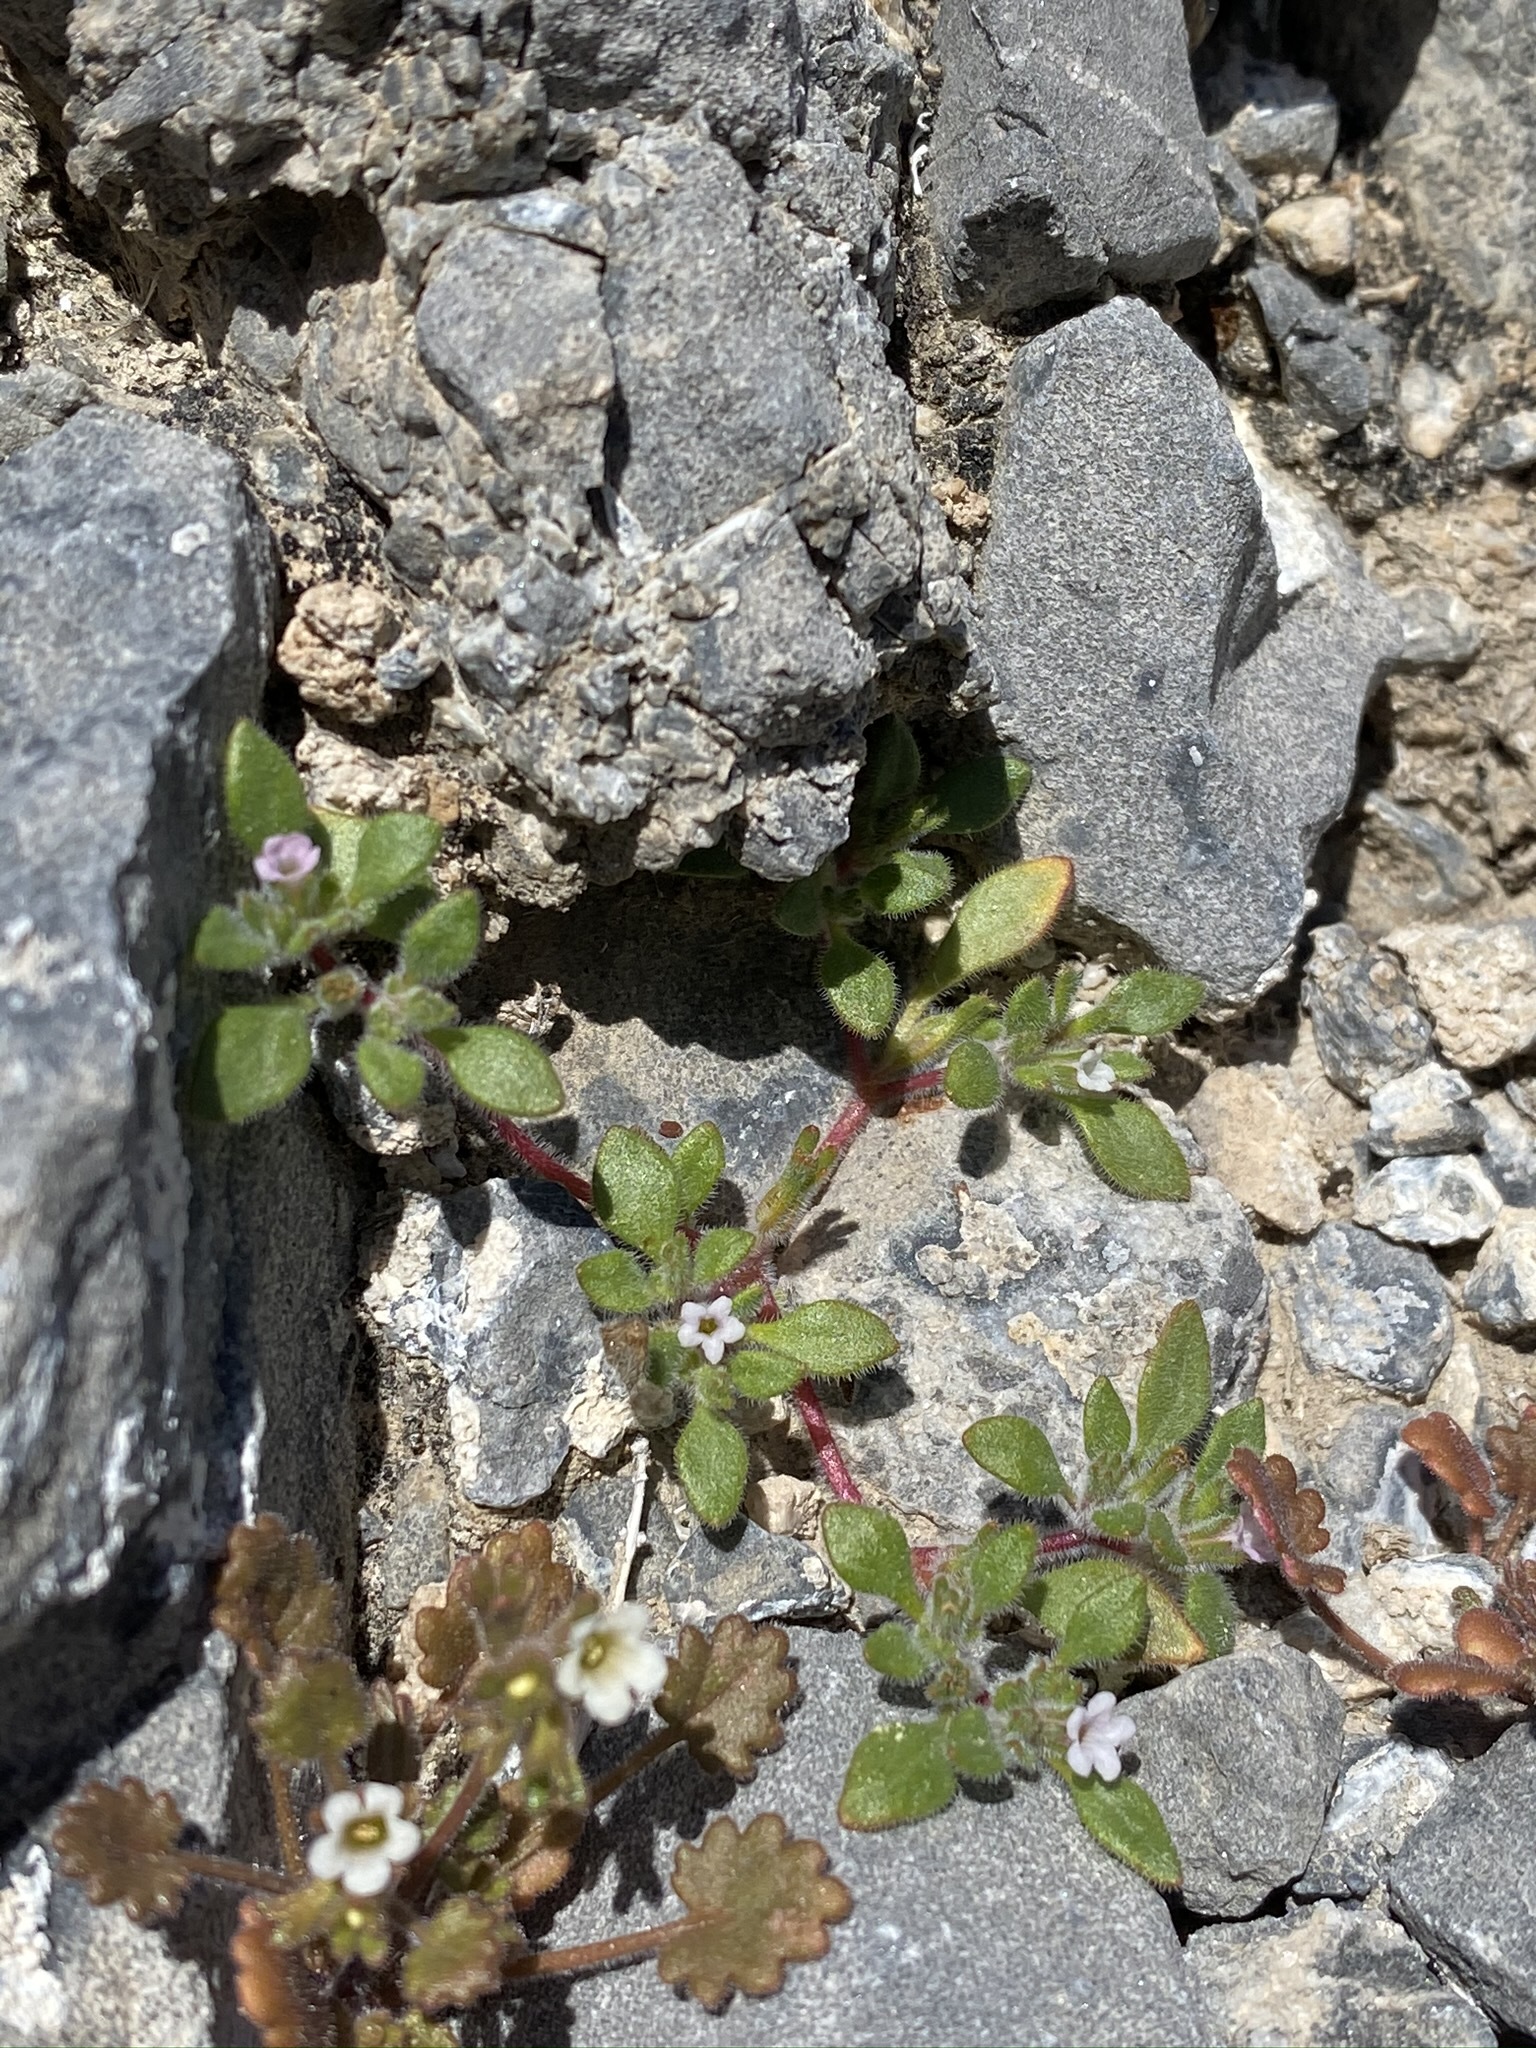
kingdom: Plantae
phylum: Tracheophyta
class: Magnoliopsida
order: Boraginales
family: Namaceae
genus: Nama
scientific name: Nama pusilla
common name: Eggleaf nama
